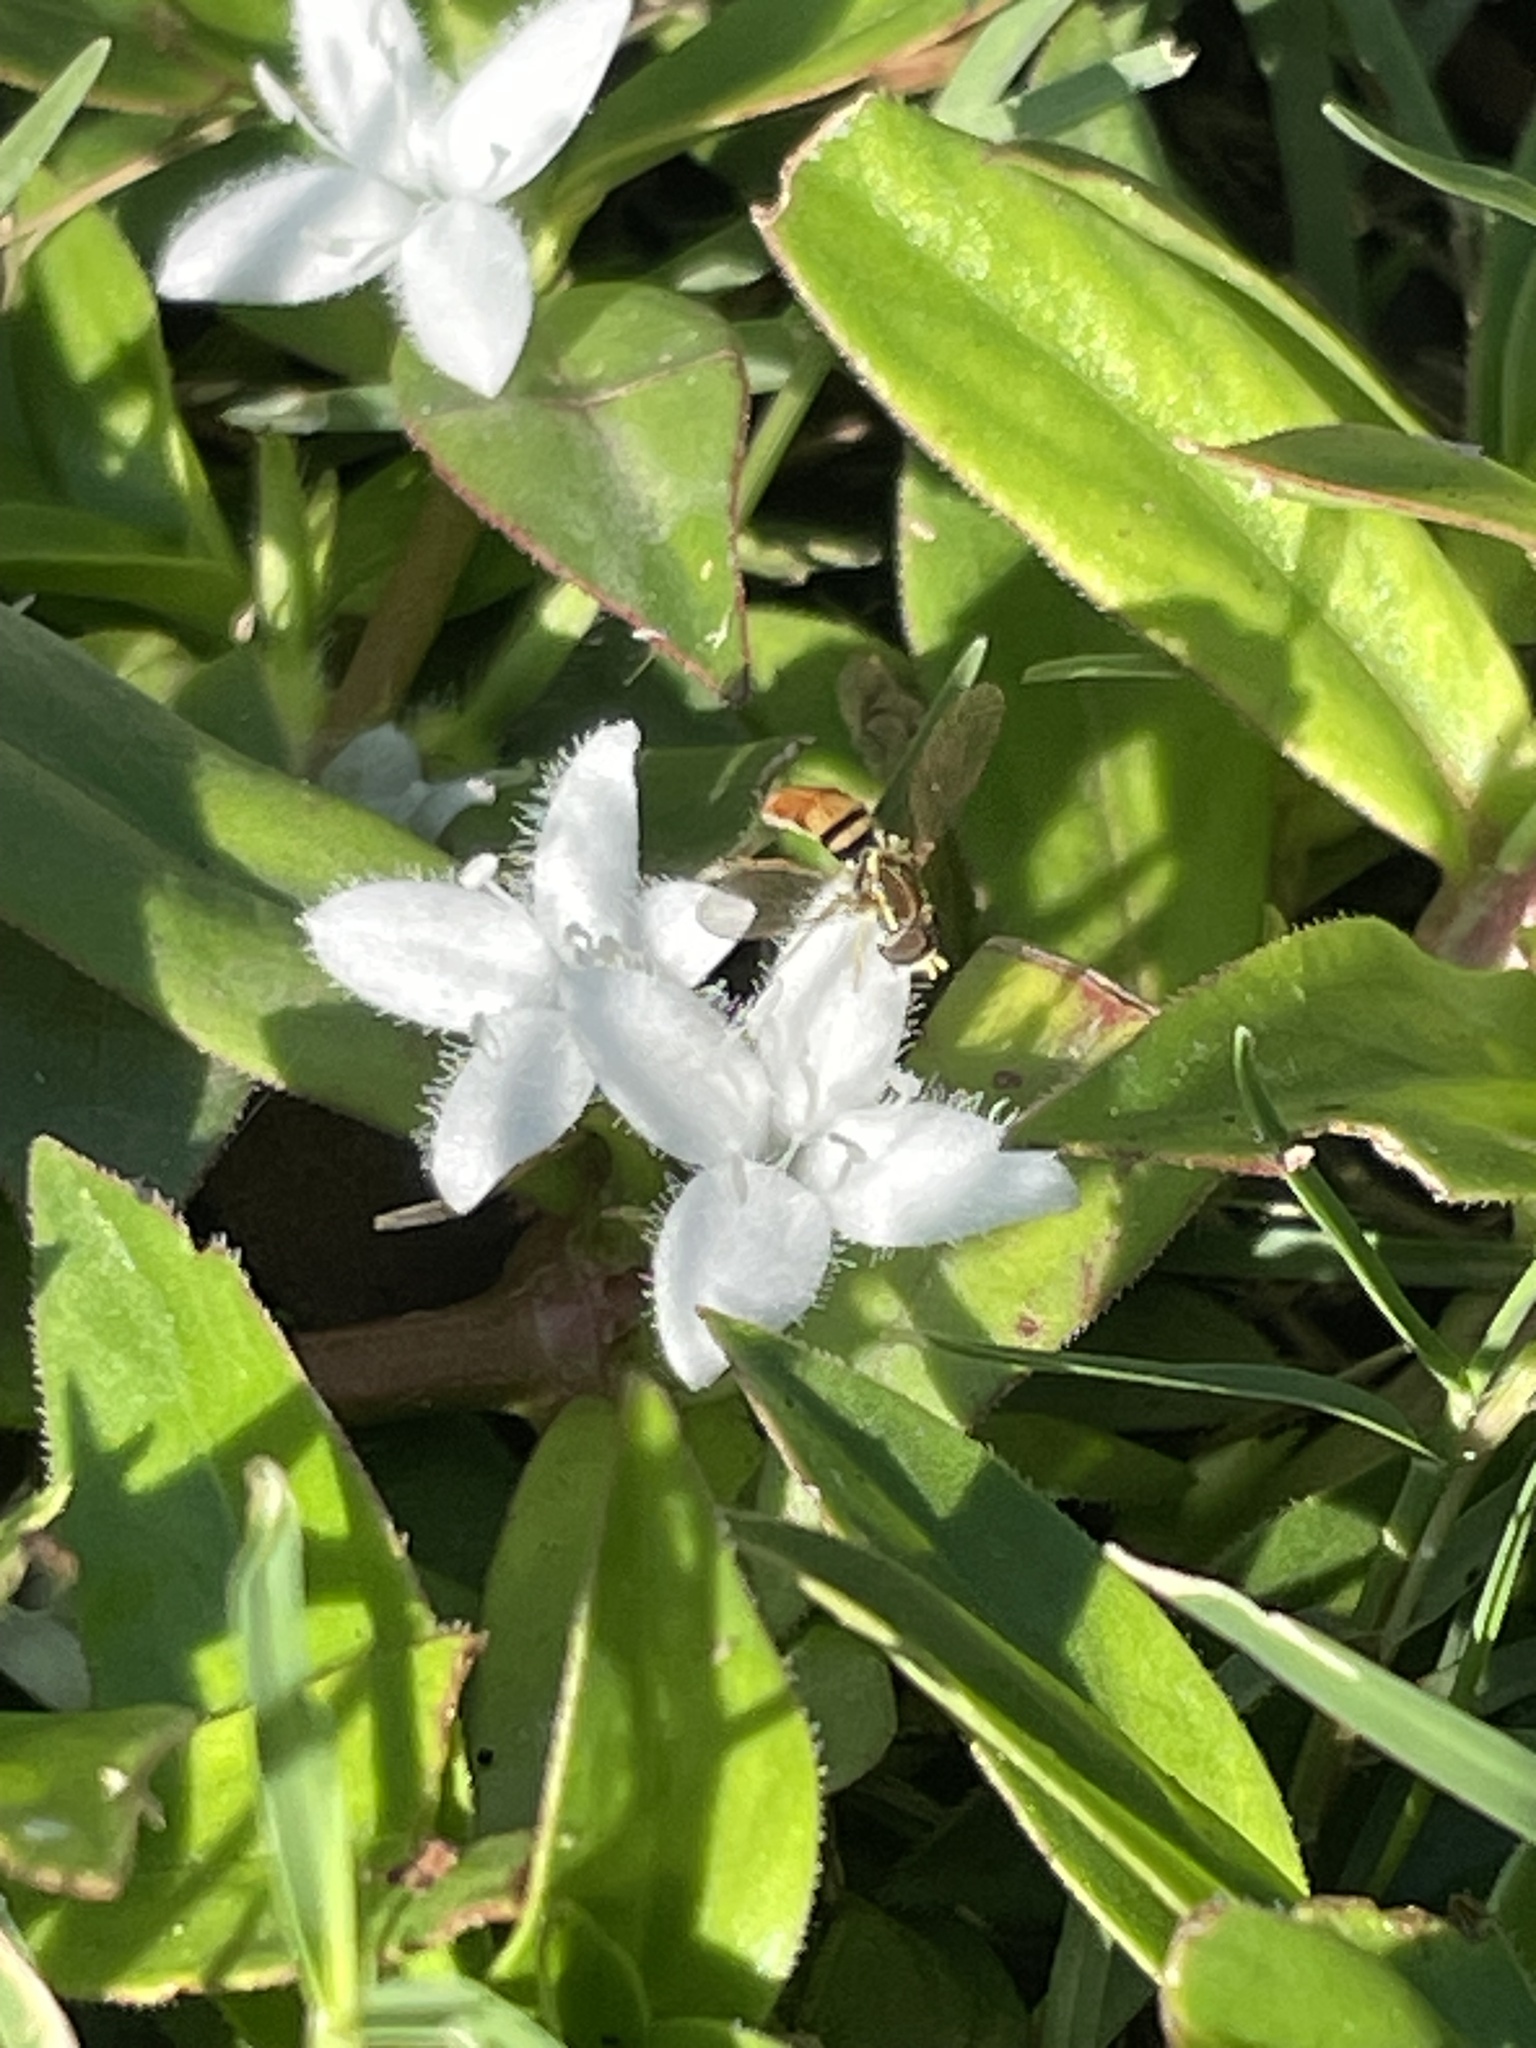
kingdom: Animalia
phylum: Arthropoda
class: Insecta
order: Diptera
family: Syrphidae
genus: Toxomerus
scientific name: Toxomerus marginatus
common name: Syrphid fly
